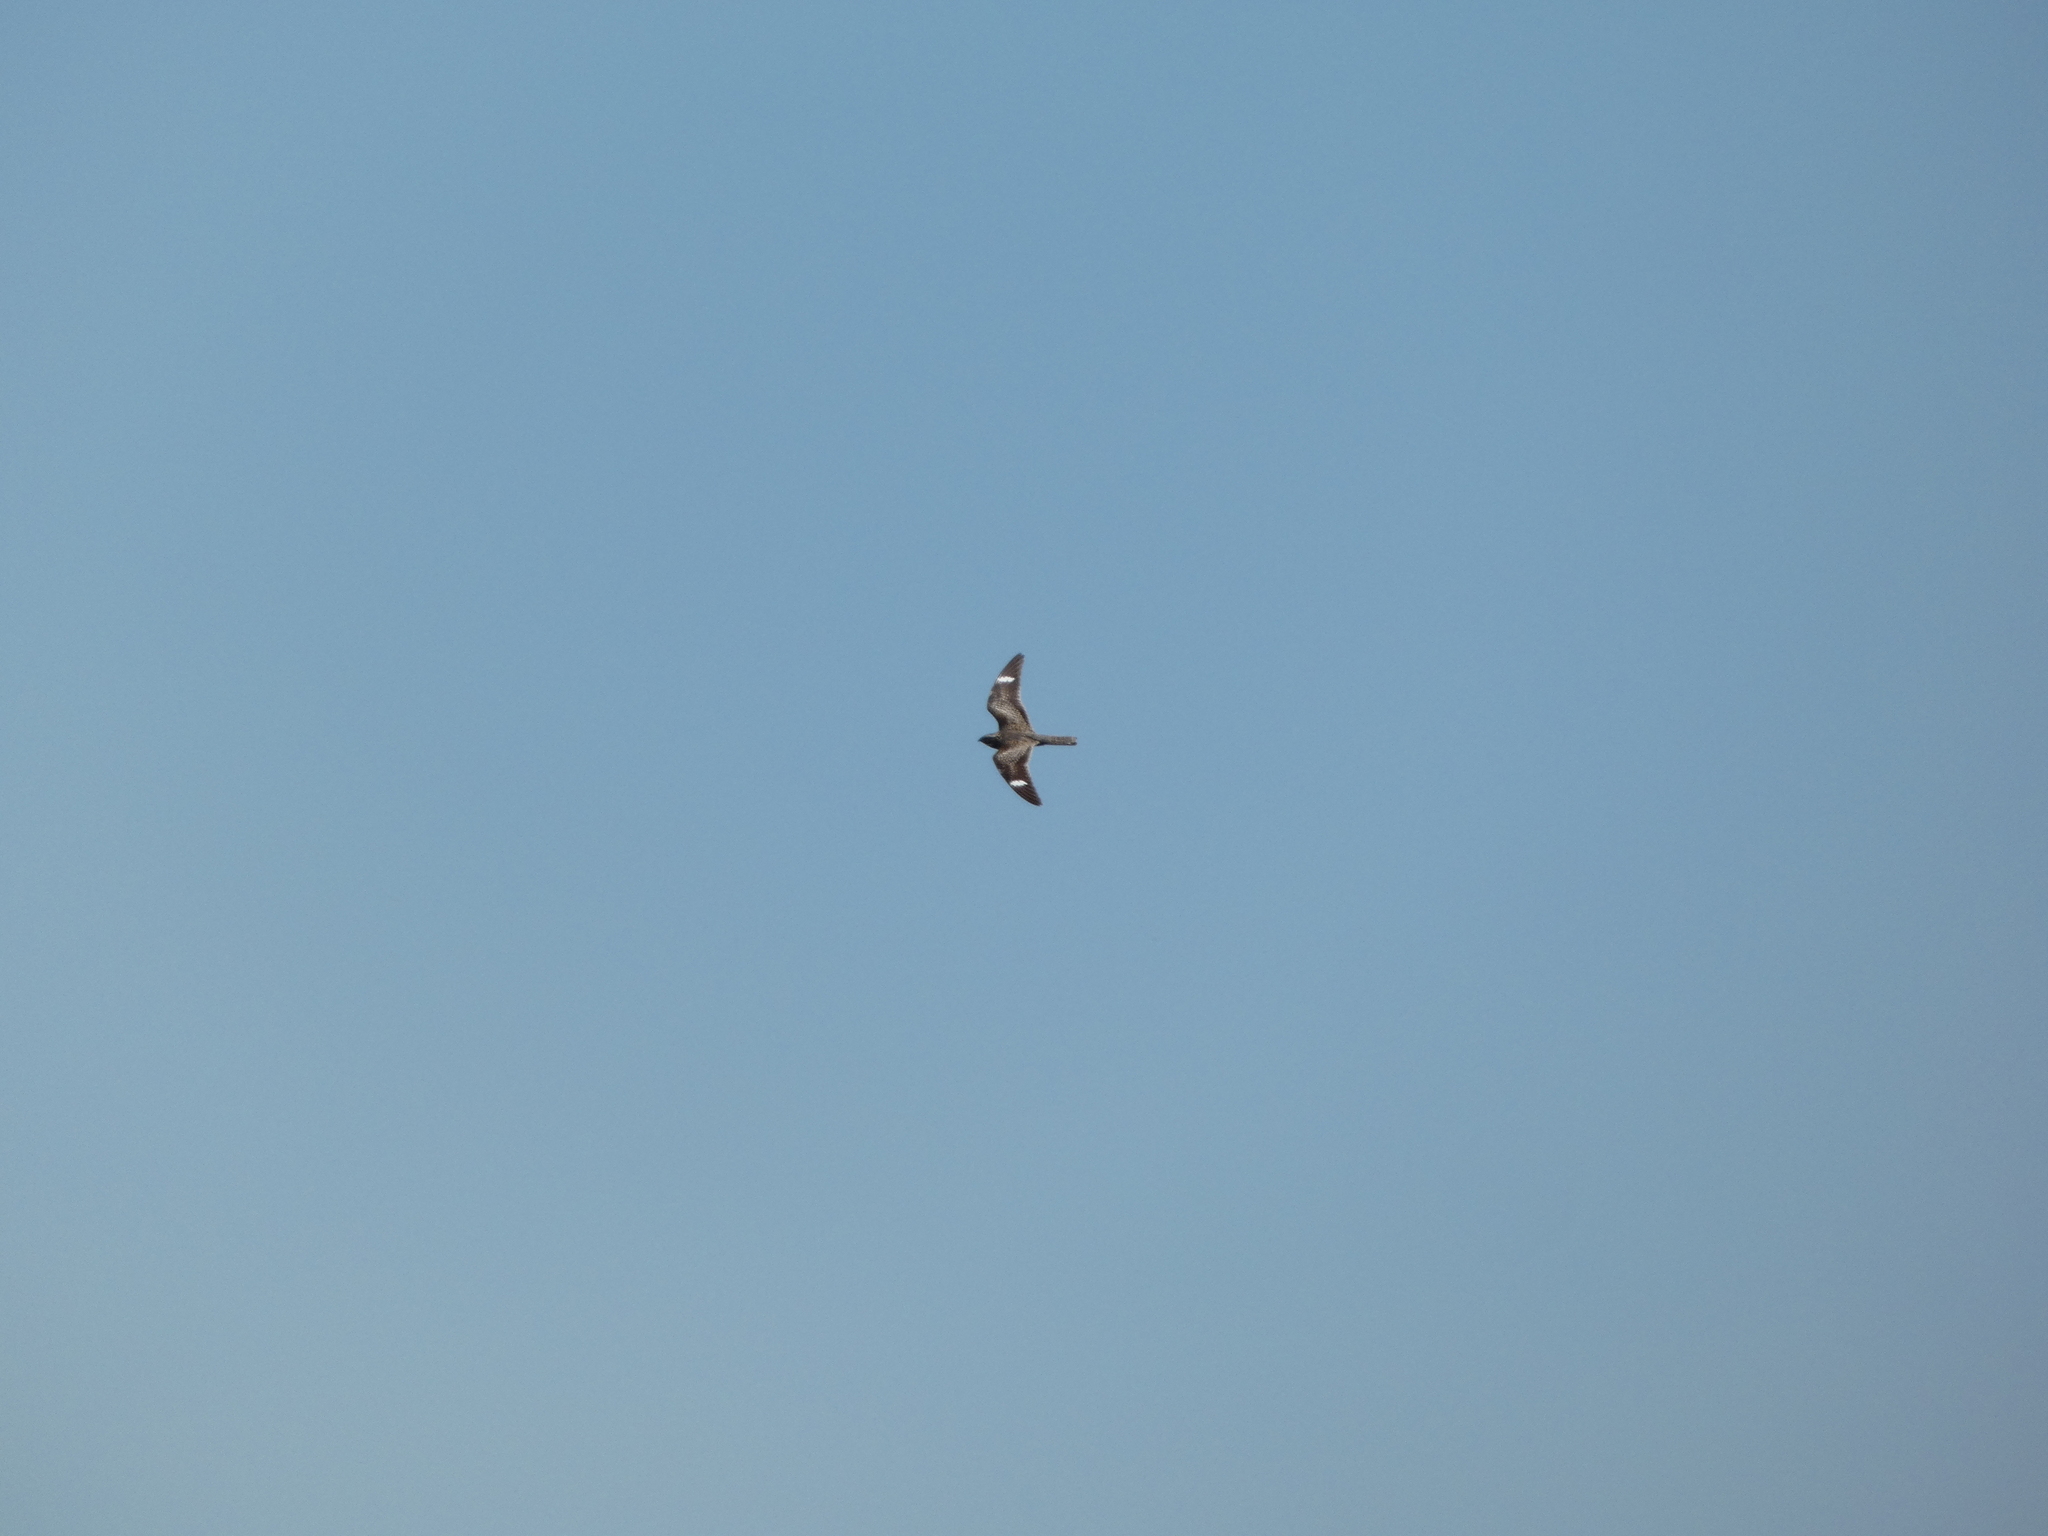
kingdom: Animalia
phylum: Chordata
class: Aves
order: Caprimulgiformes
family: Caprimulgidae
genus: Chordeiles
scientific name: Chordeiles minor
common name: Common nighthawk
